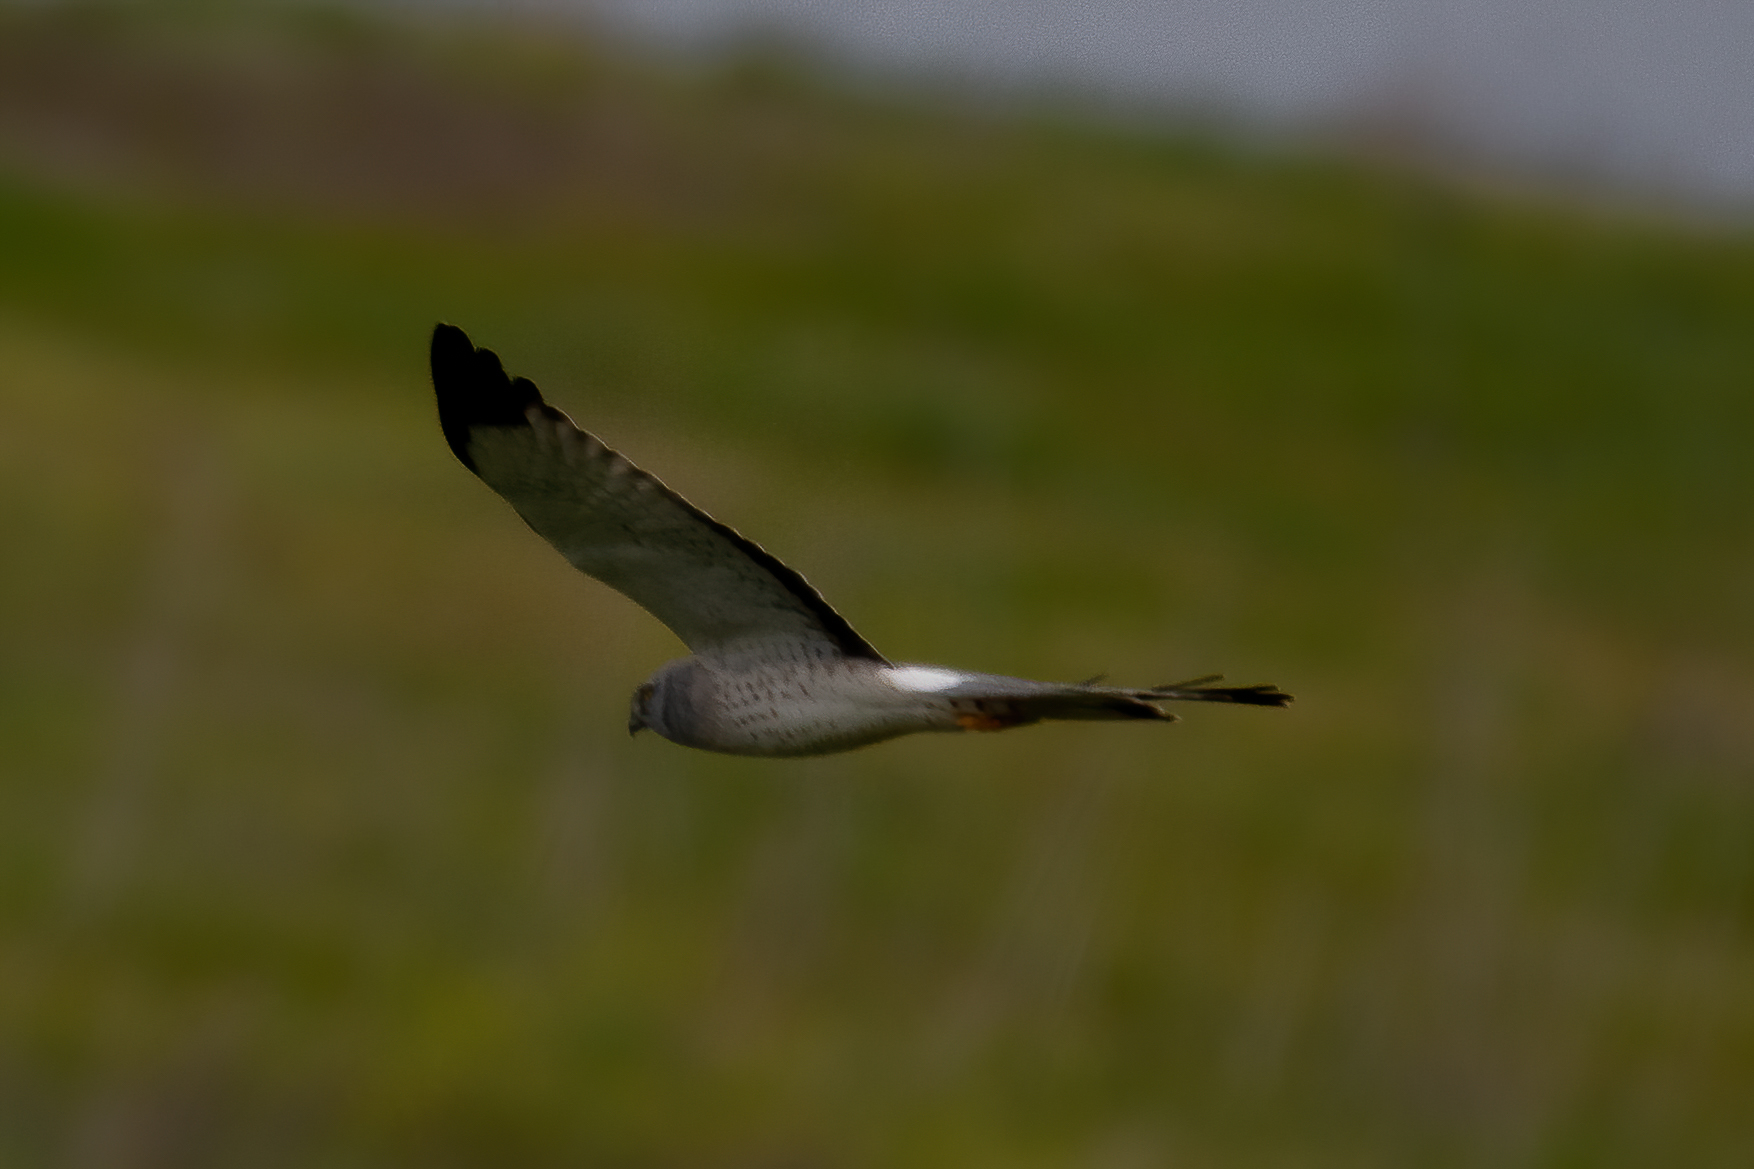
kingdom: Animalia
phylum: Chordata
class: Aves
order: Accipitriformes
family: Accipitridae
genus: Circus
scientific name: Circus cyaneus
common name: Hen harrier
